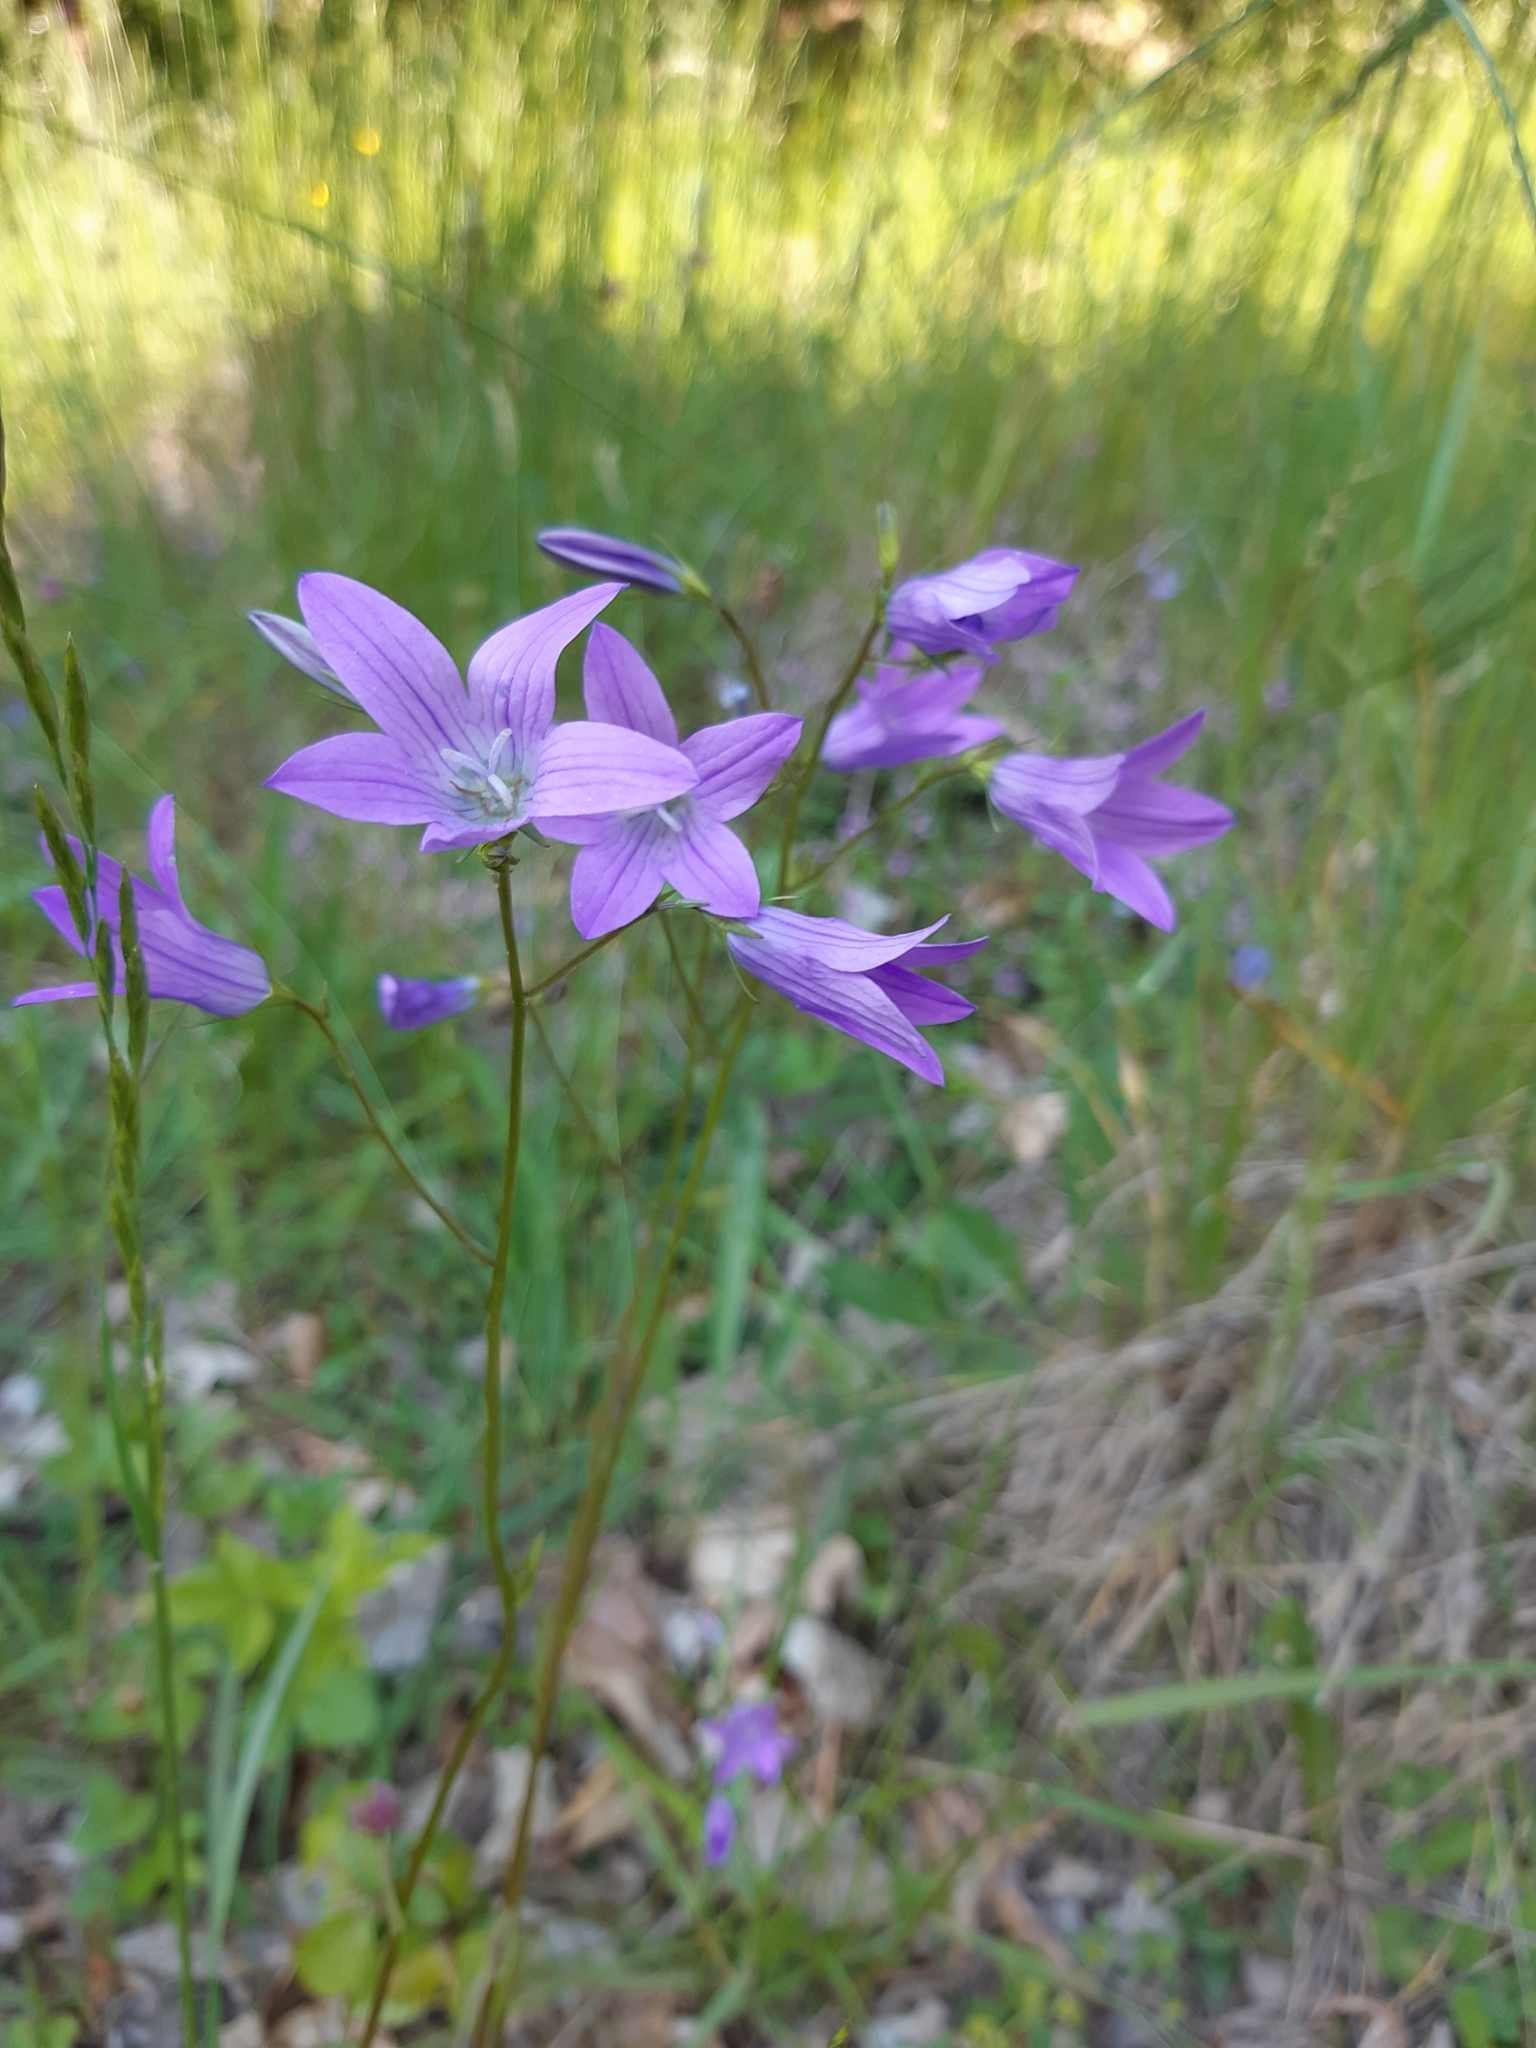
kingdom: Plantae
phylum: Tracheophyta
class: Magnoliopsida
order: Asterales
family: Campanulaceae
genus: Campanula
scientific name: Campanula patula
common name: Spreading bellflower
